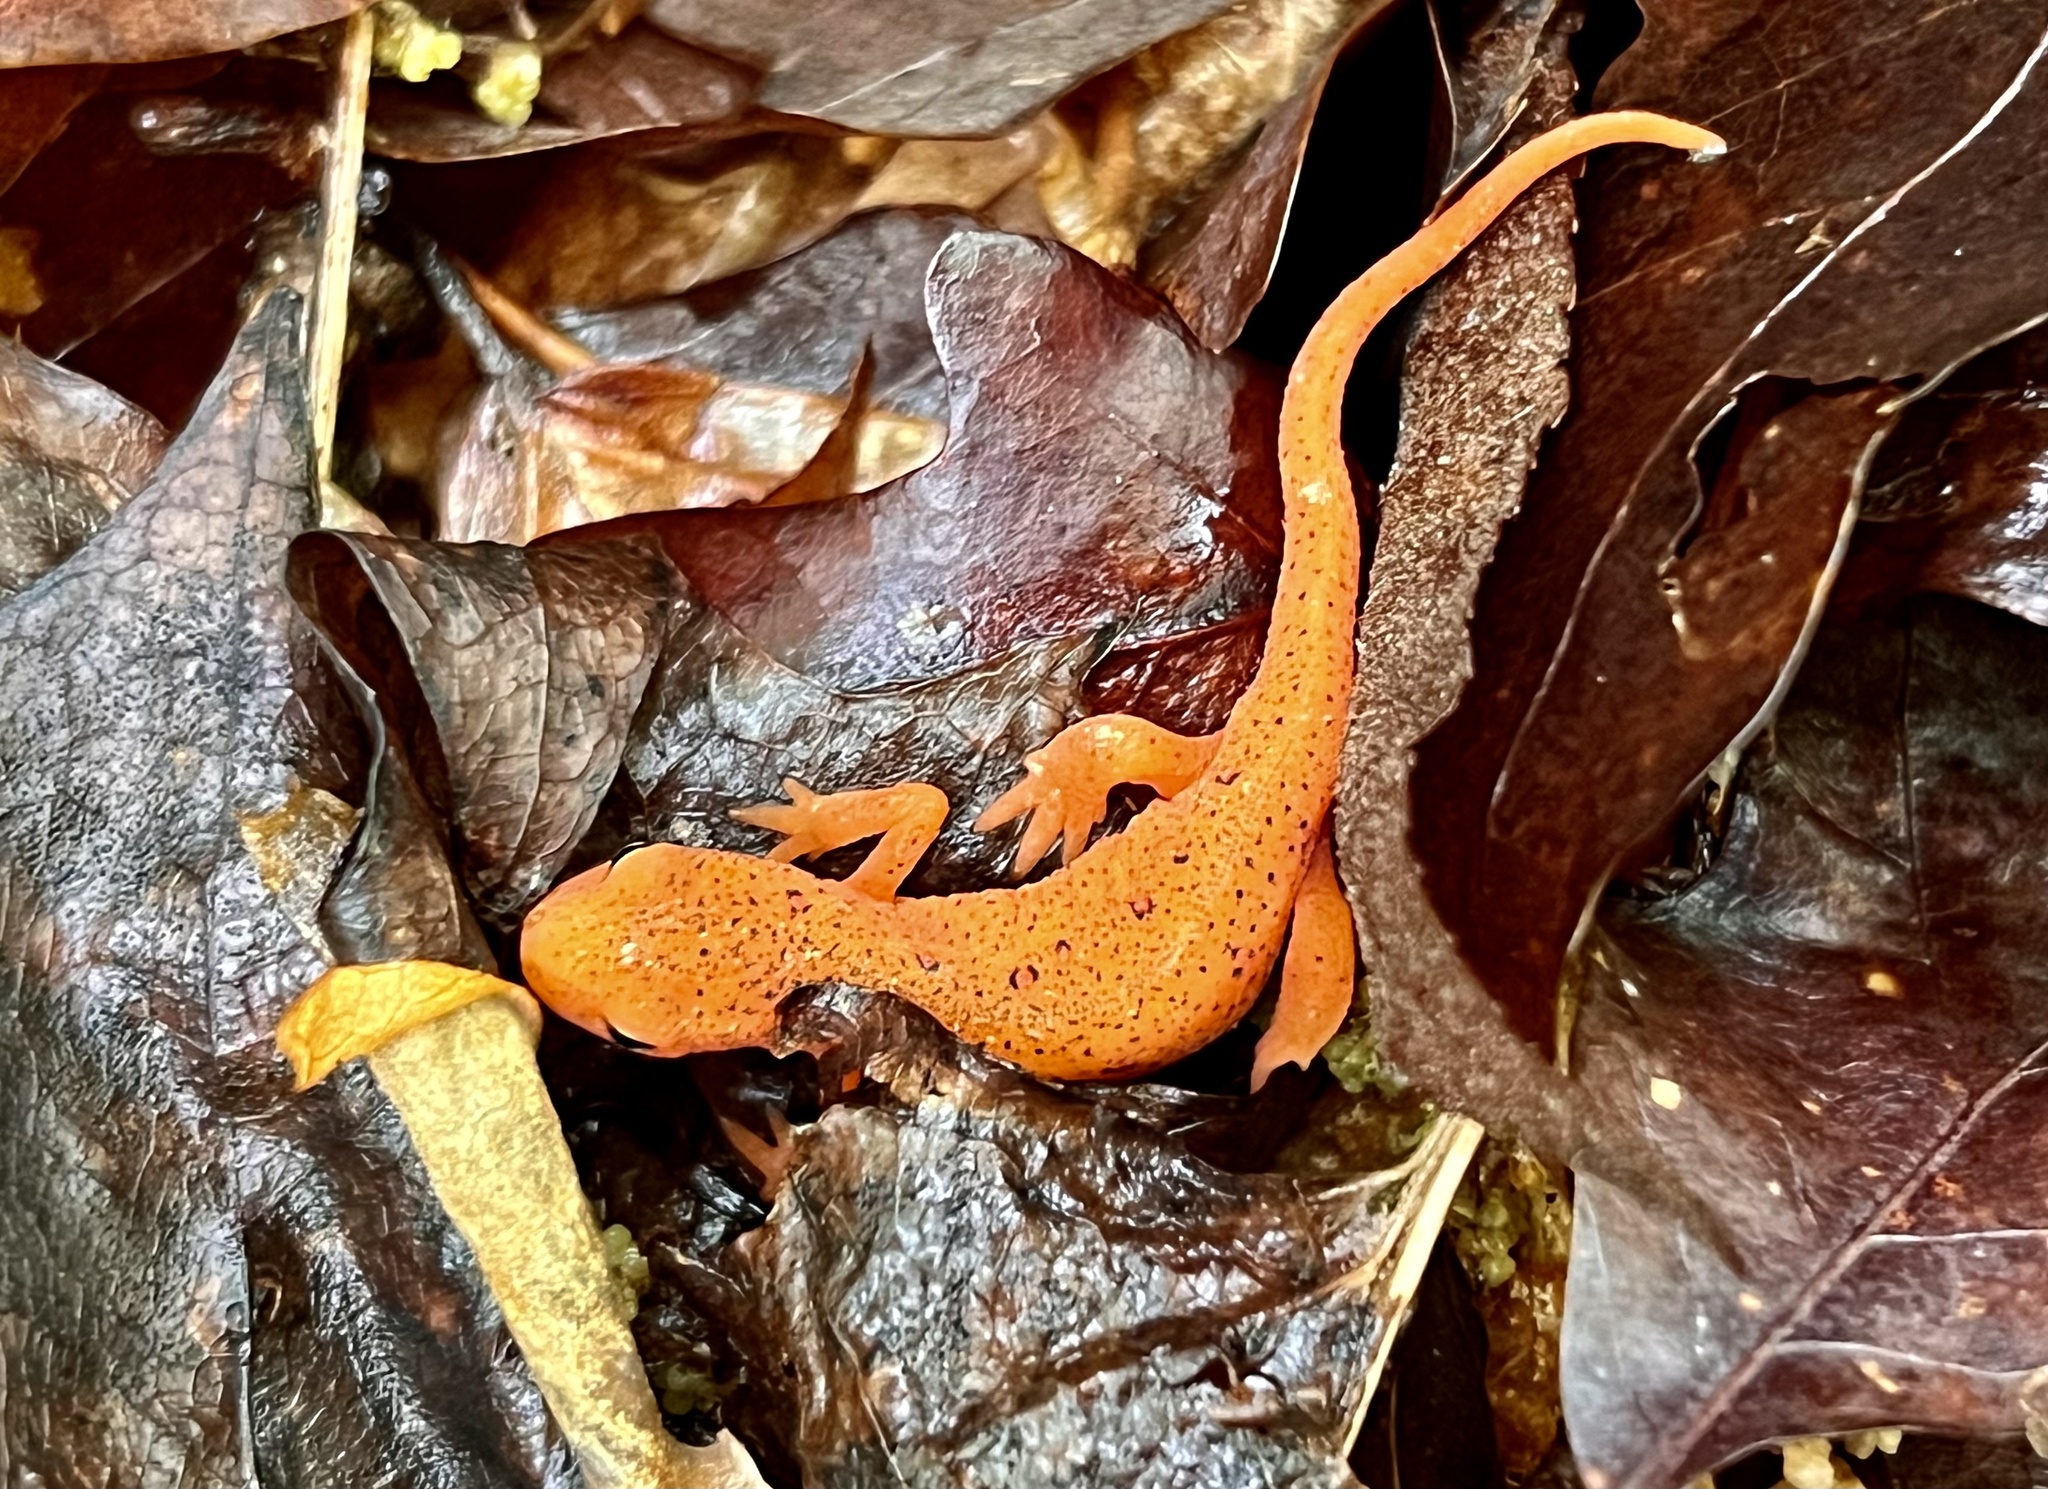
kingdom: Animalia
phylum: Chordata
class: Amphibia
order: Caudata
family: Salamandridae
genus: Notophthalmus
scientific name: Notophthalmus viridescens
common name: Eastern newt
